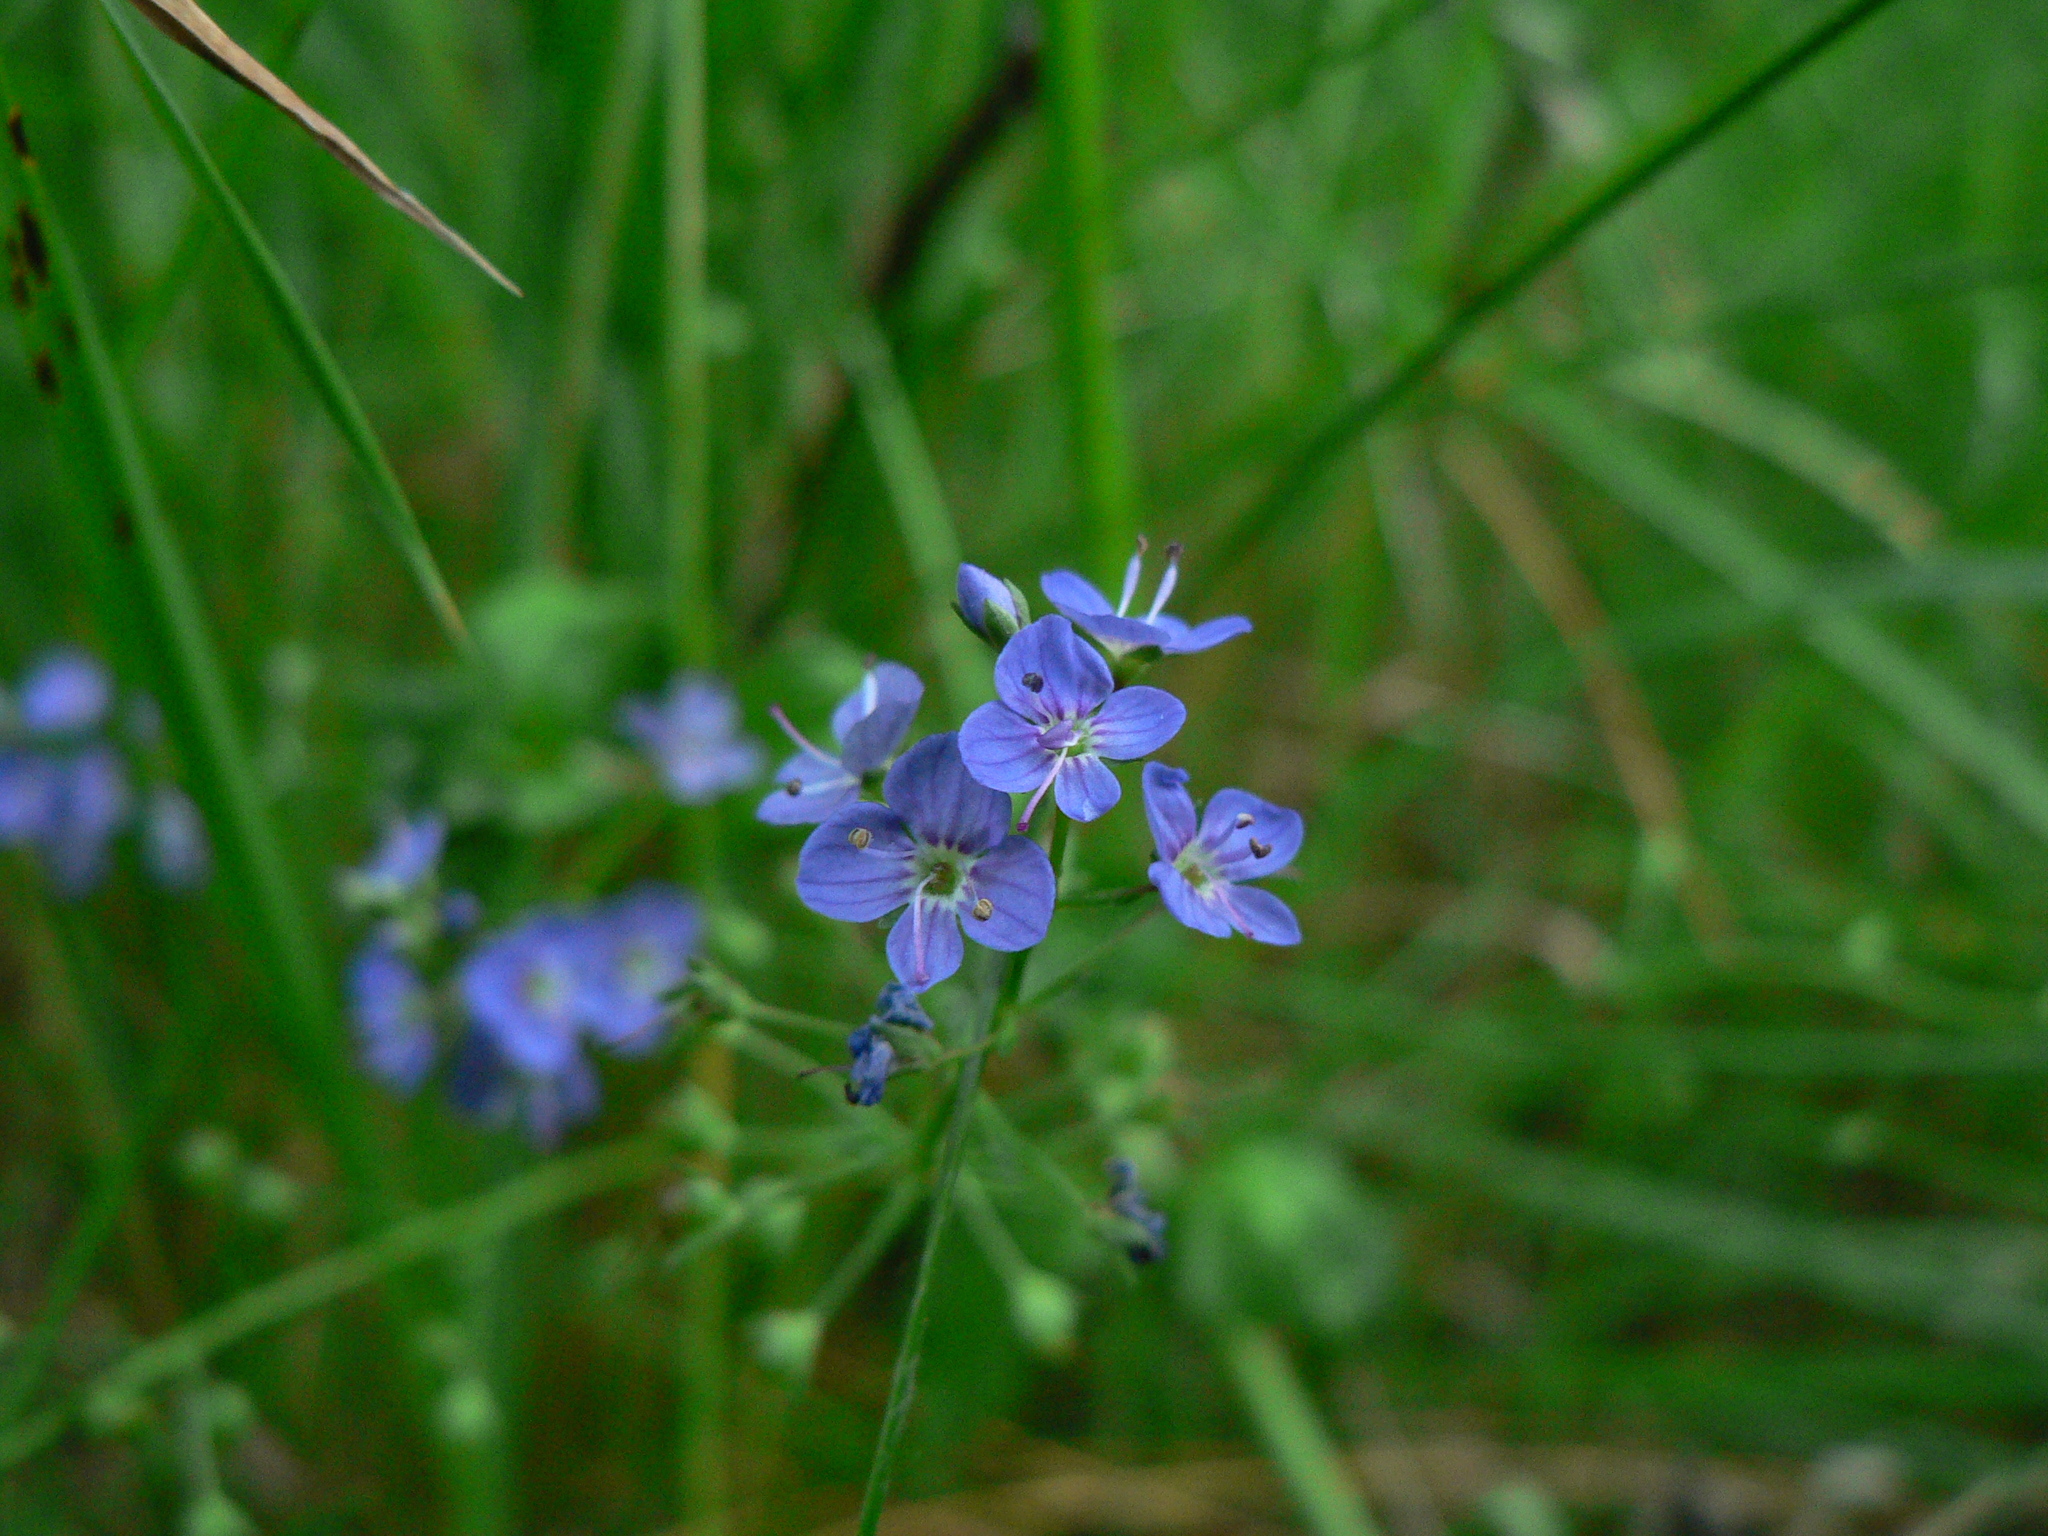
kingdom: Plantae
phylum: Tracheophyta
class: Magnoliopsida
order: Lamiales
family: Plantaginaceae
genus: Veronica
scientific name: Veronica americana
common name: American brooklime
